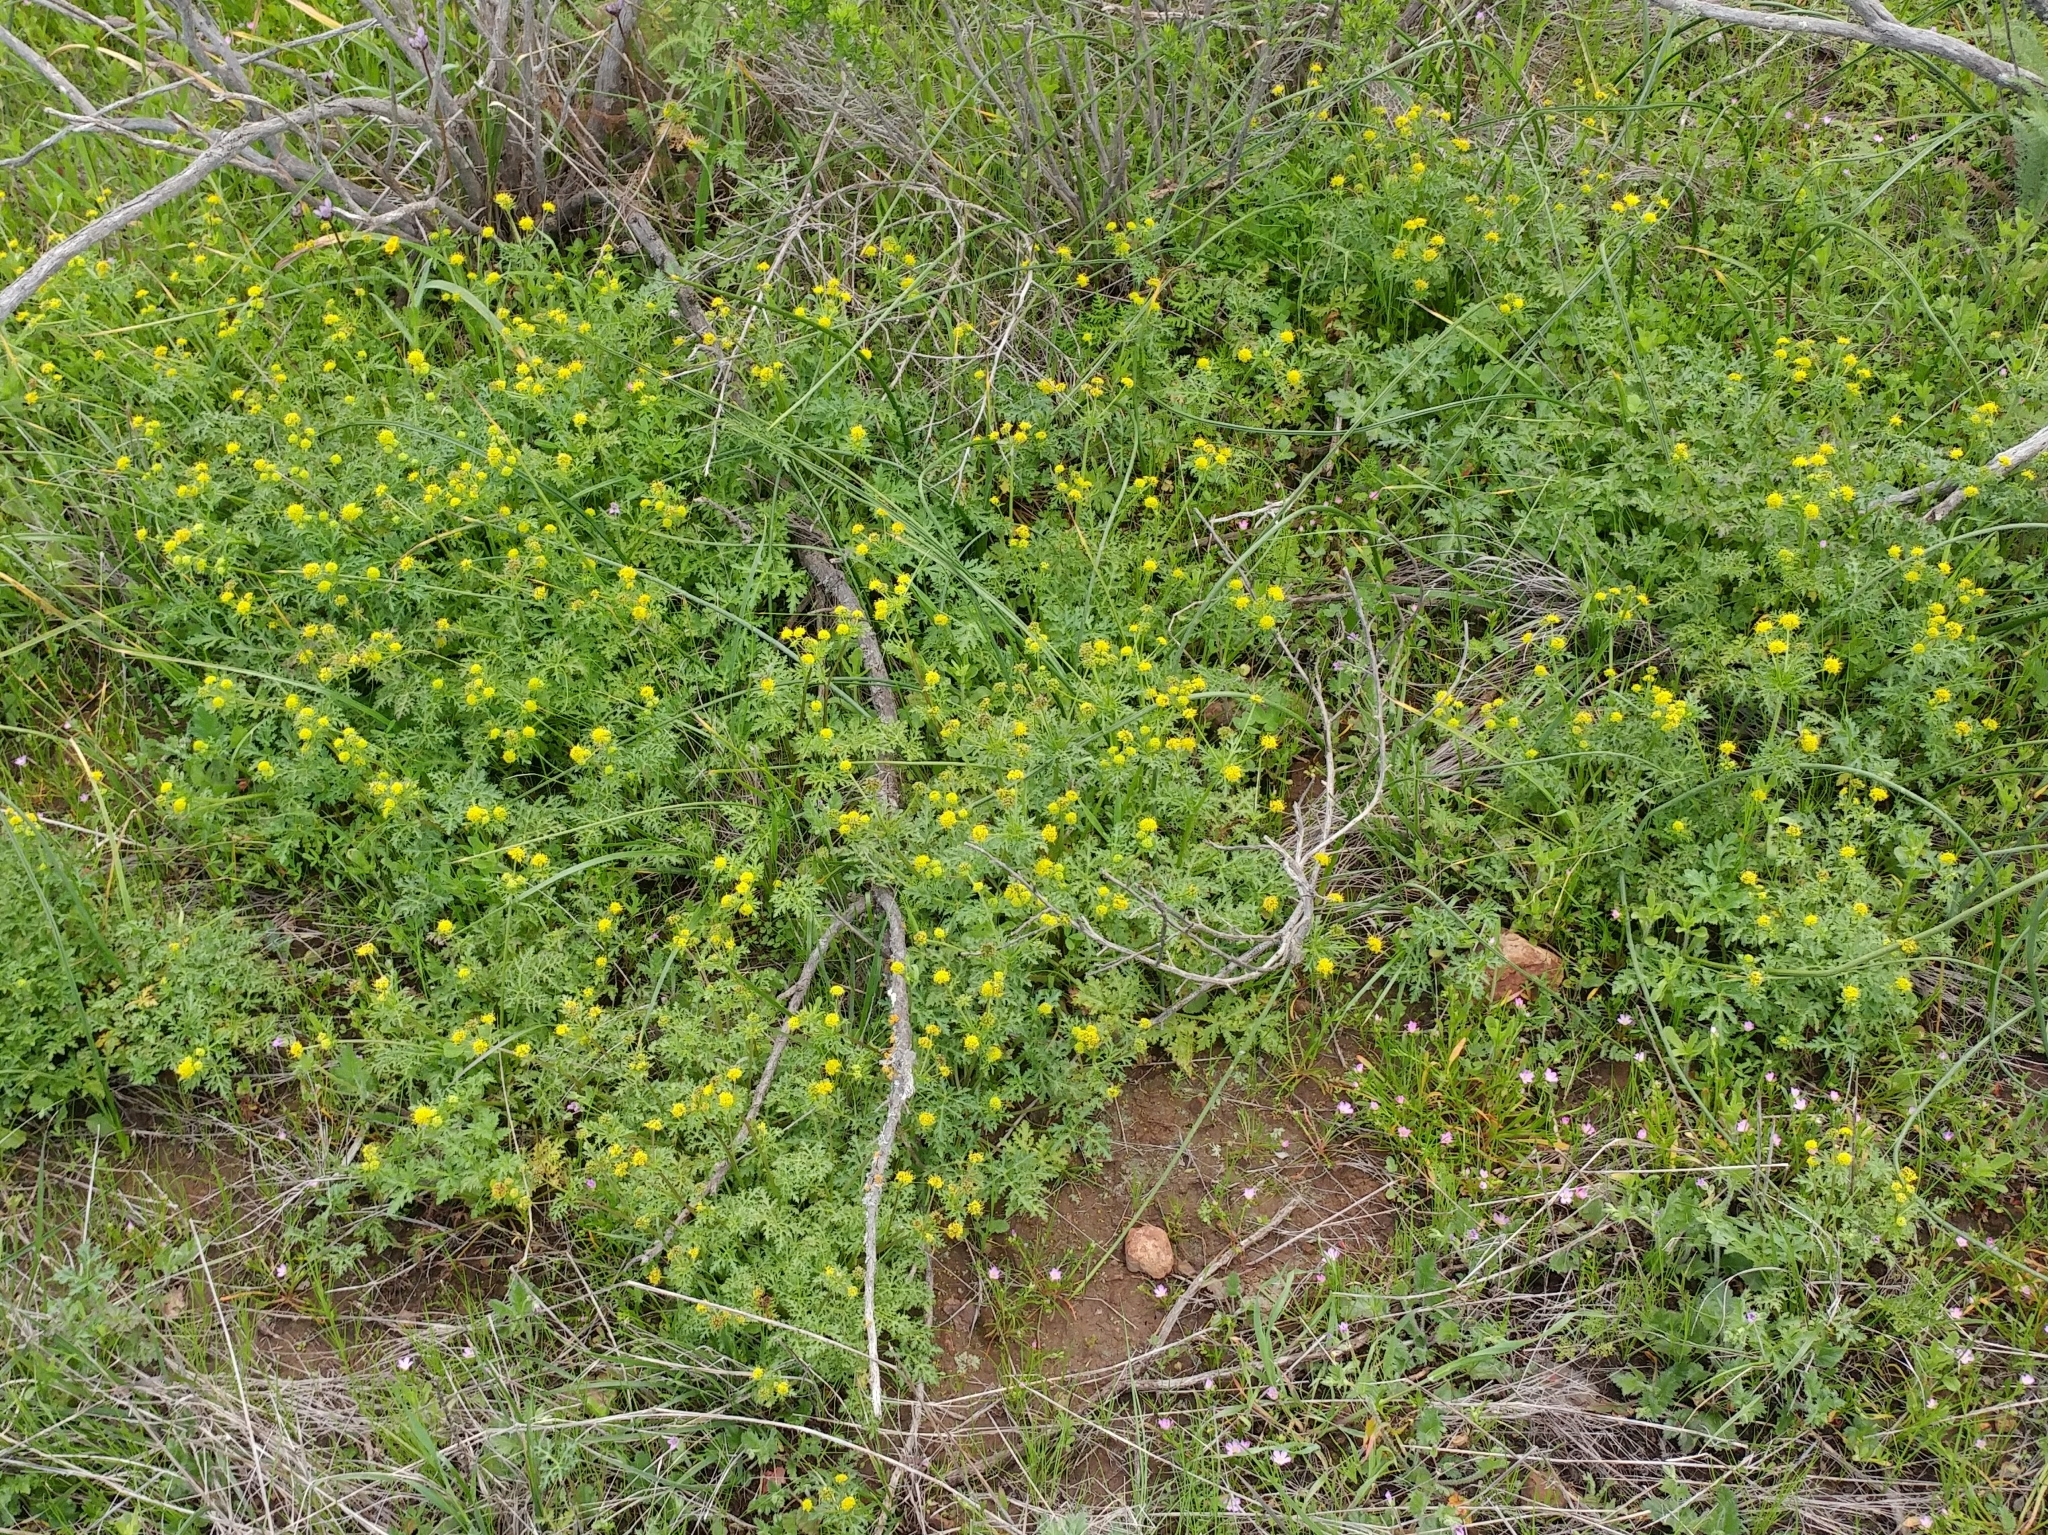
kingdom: Plantae
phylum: Tracheophyta
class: Magnoliopsida
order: Apiales
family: Apiaceae
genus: Sanicula
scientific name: Sanicula arguta
